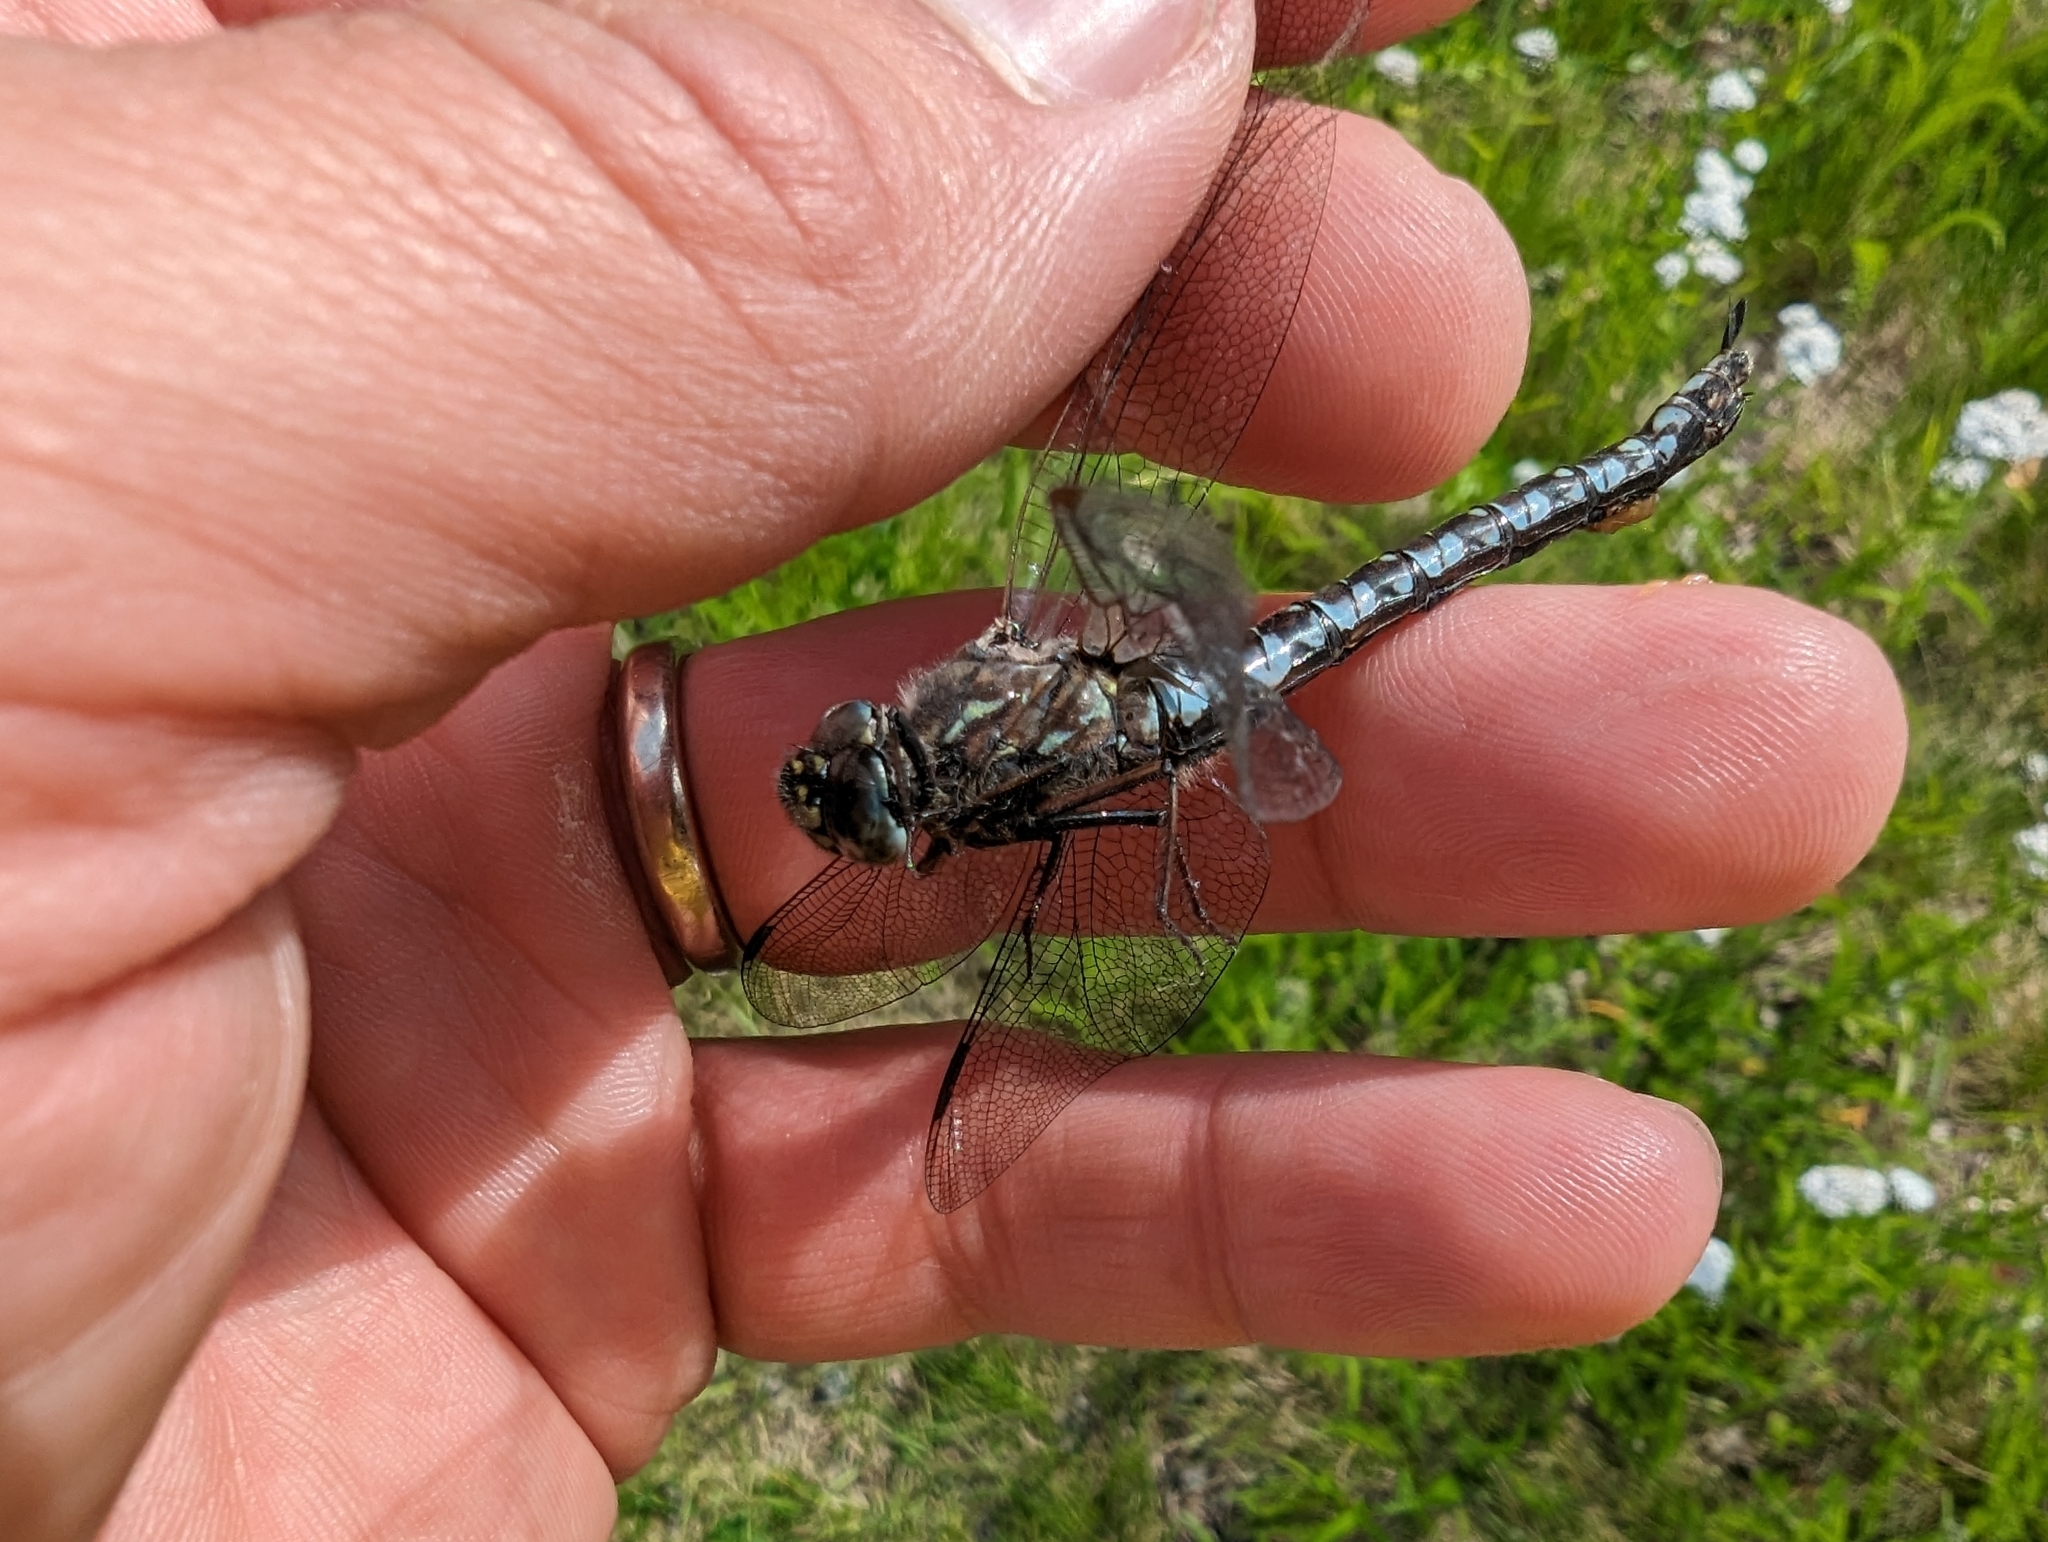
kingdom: Animalia
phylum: Arthropoda
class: Insecta
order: Odonata
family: Aeshnidae
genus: Aeshna
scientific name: Aeshna sitchensis
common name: Zigzag darner
